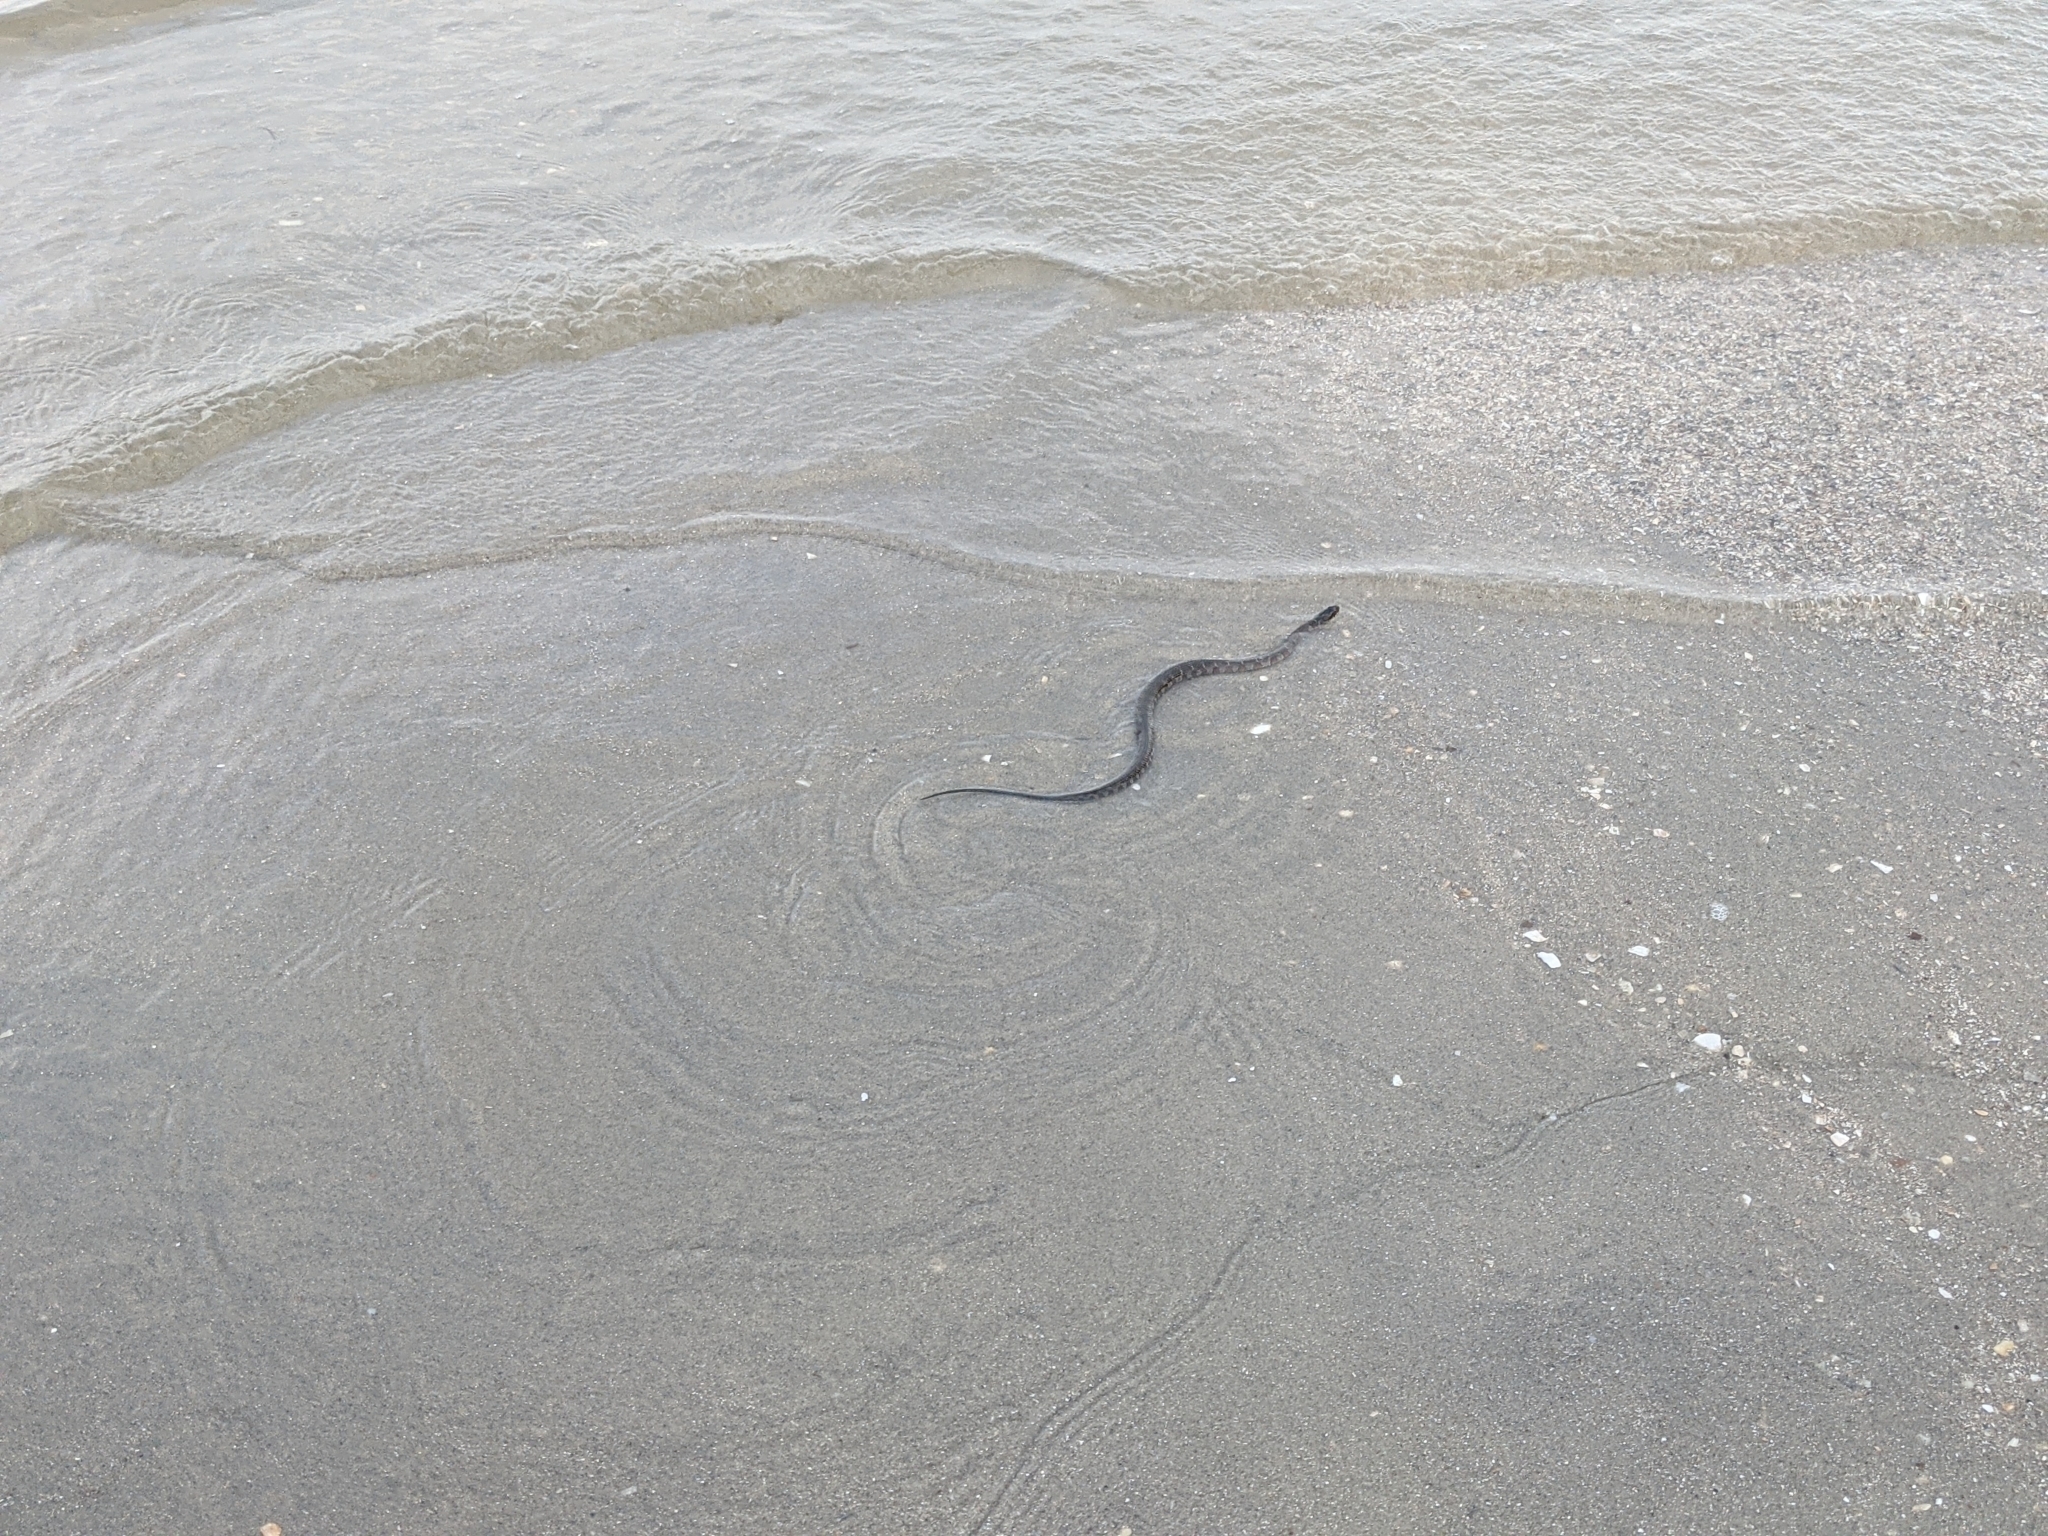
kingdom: Animalia
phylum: Chordata
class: Squamata
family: Colubridae
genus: Nerodia
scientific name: Nerodia sipedon
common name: Northern water snake
